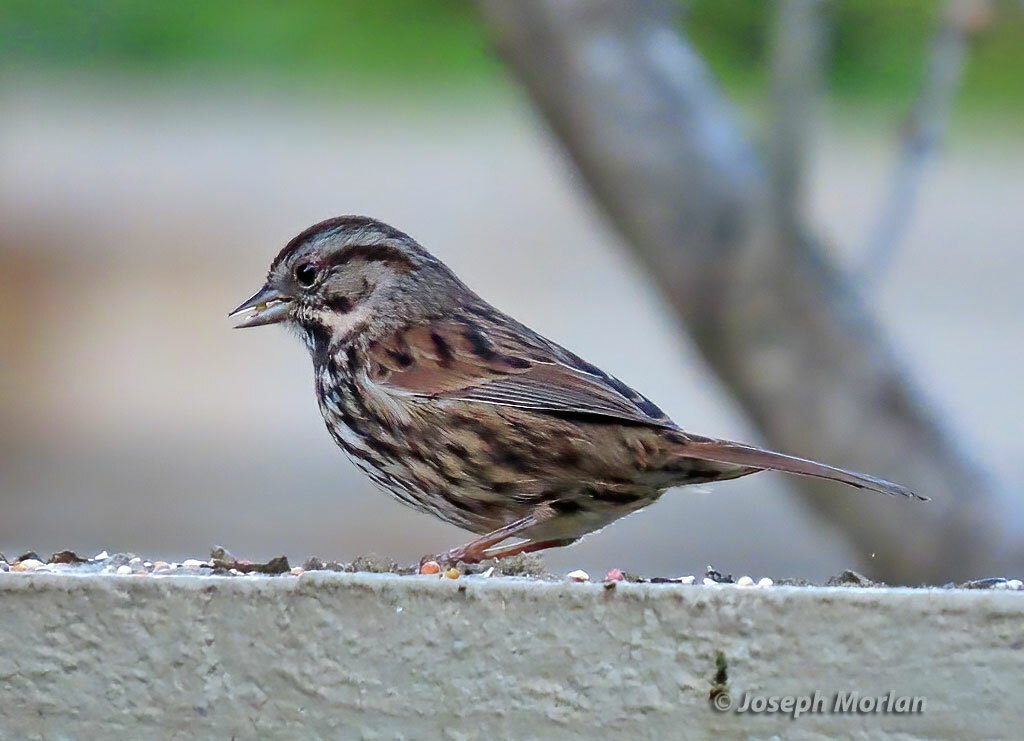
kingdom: Animalia
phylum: Chordata
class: Aves
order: Passeriformes
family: Passerellidae
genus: Melospiza
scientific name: Melospiza melodia
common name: Song sparrow
